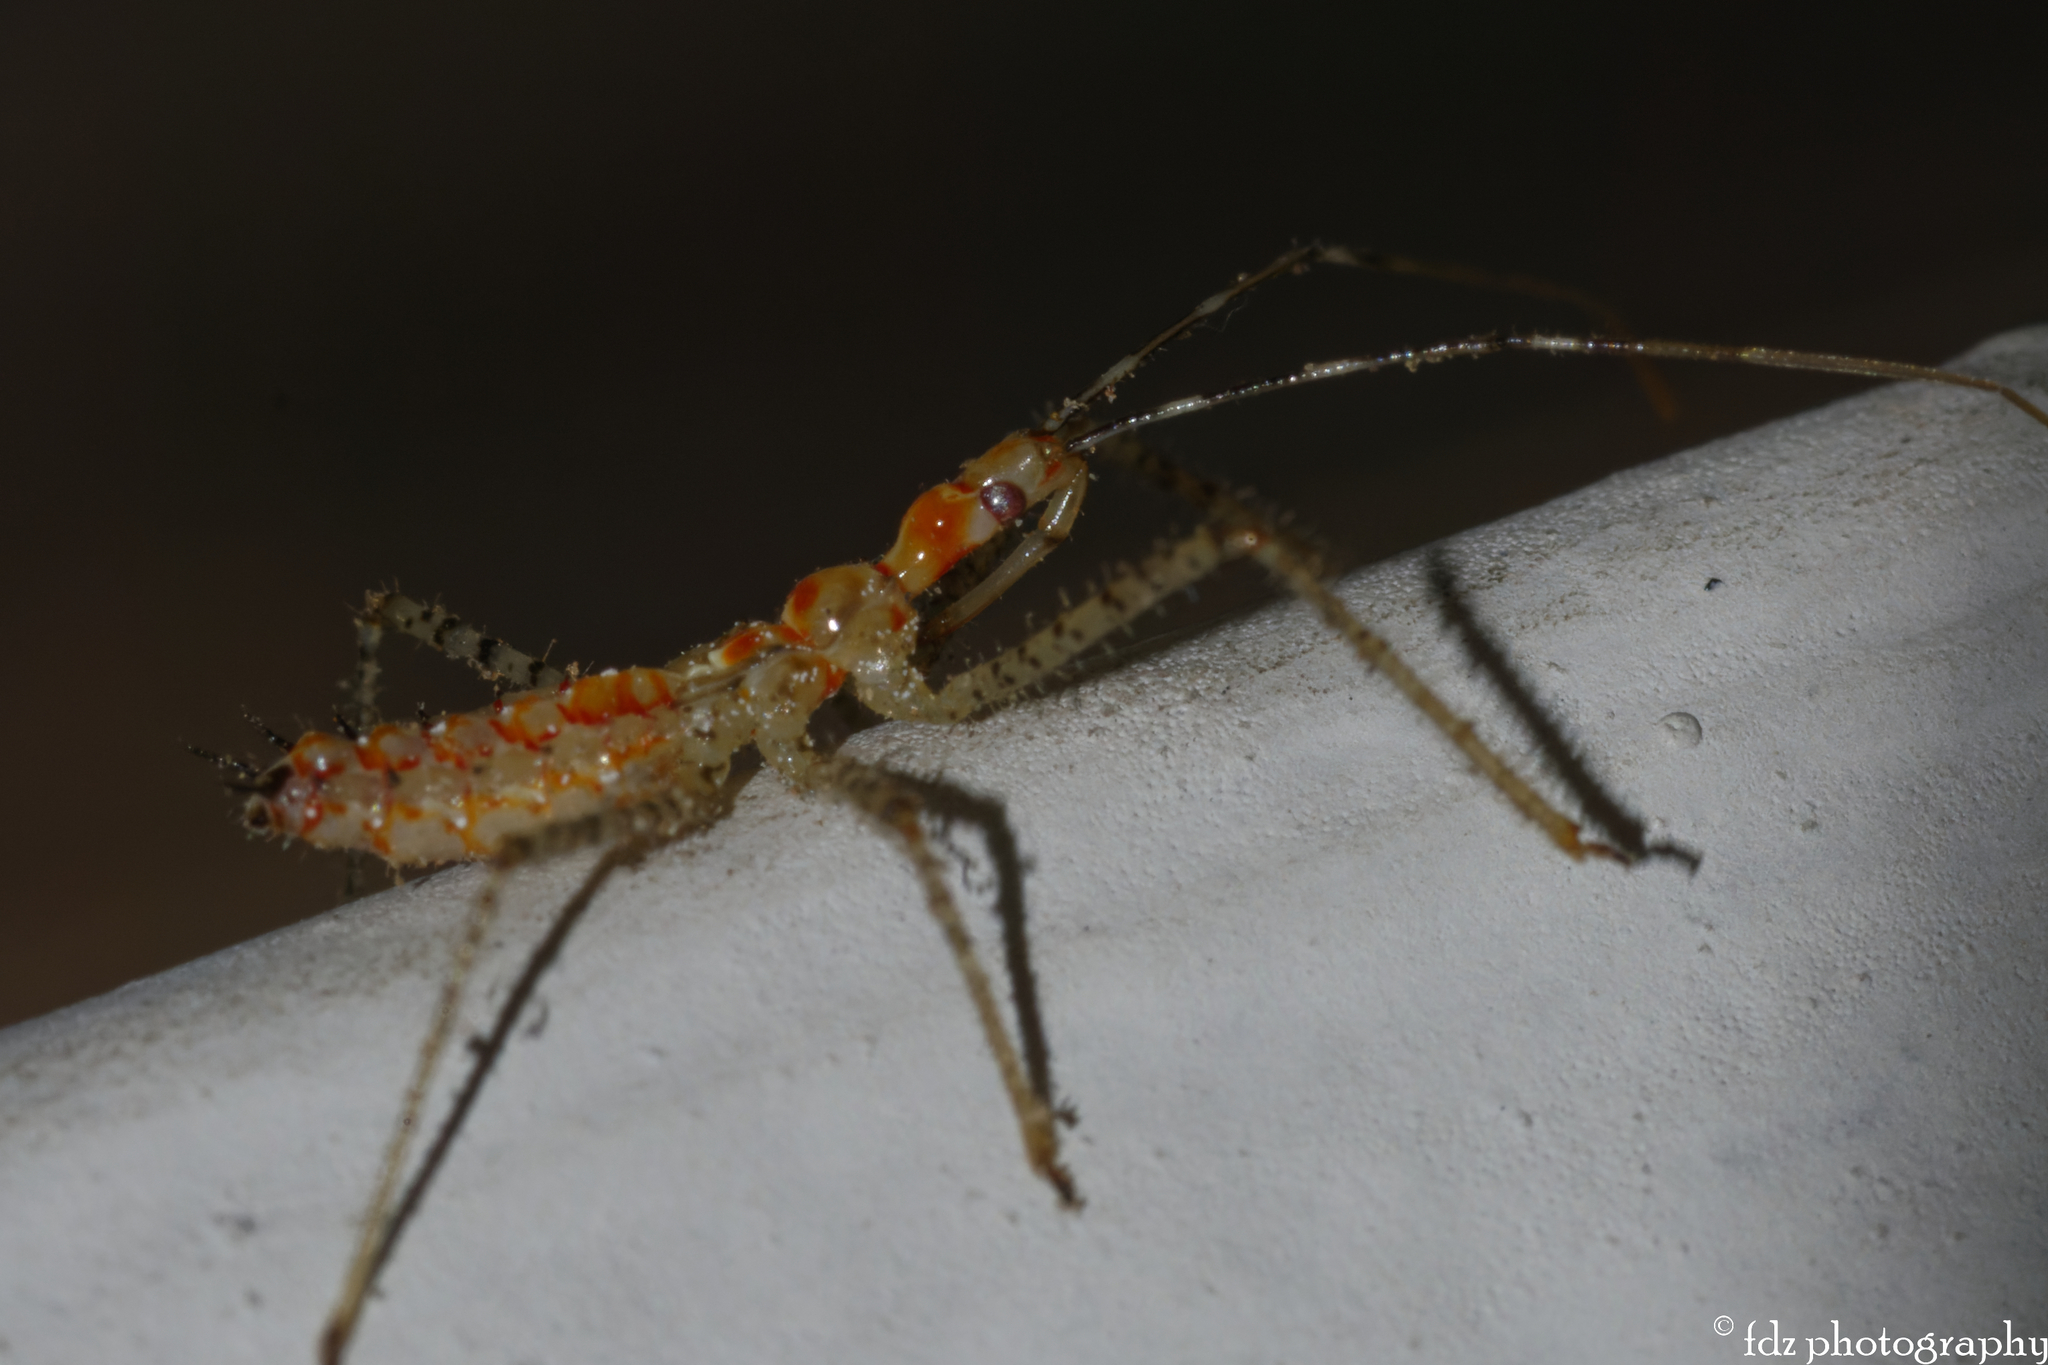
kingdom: Animalia
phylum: Arthropoda
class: Insecta
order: Hemiptera
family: Reduviidae
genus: Zelus
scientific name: Zelus renardii
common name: Assassin bug
